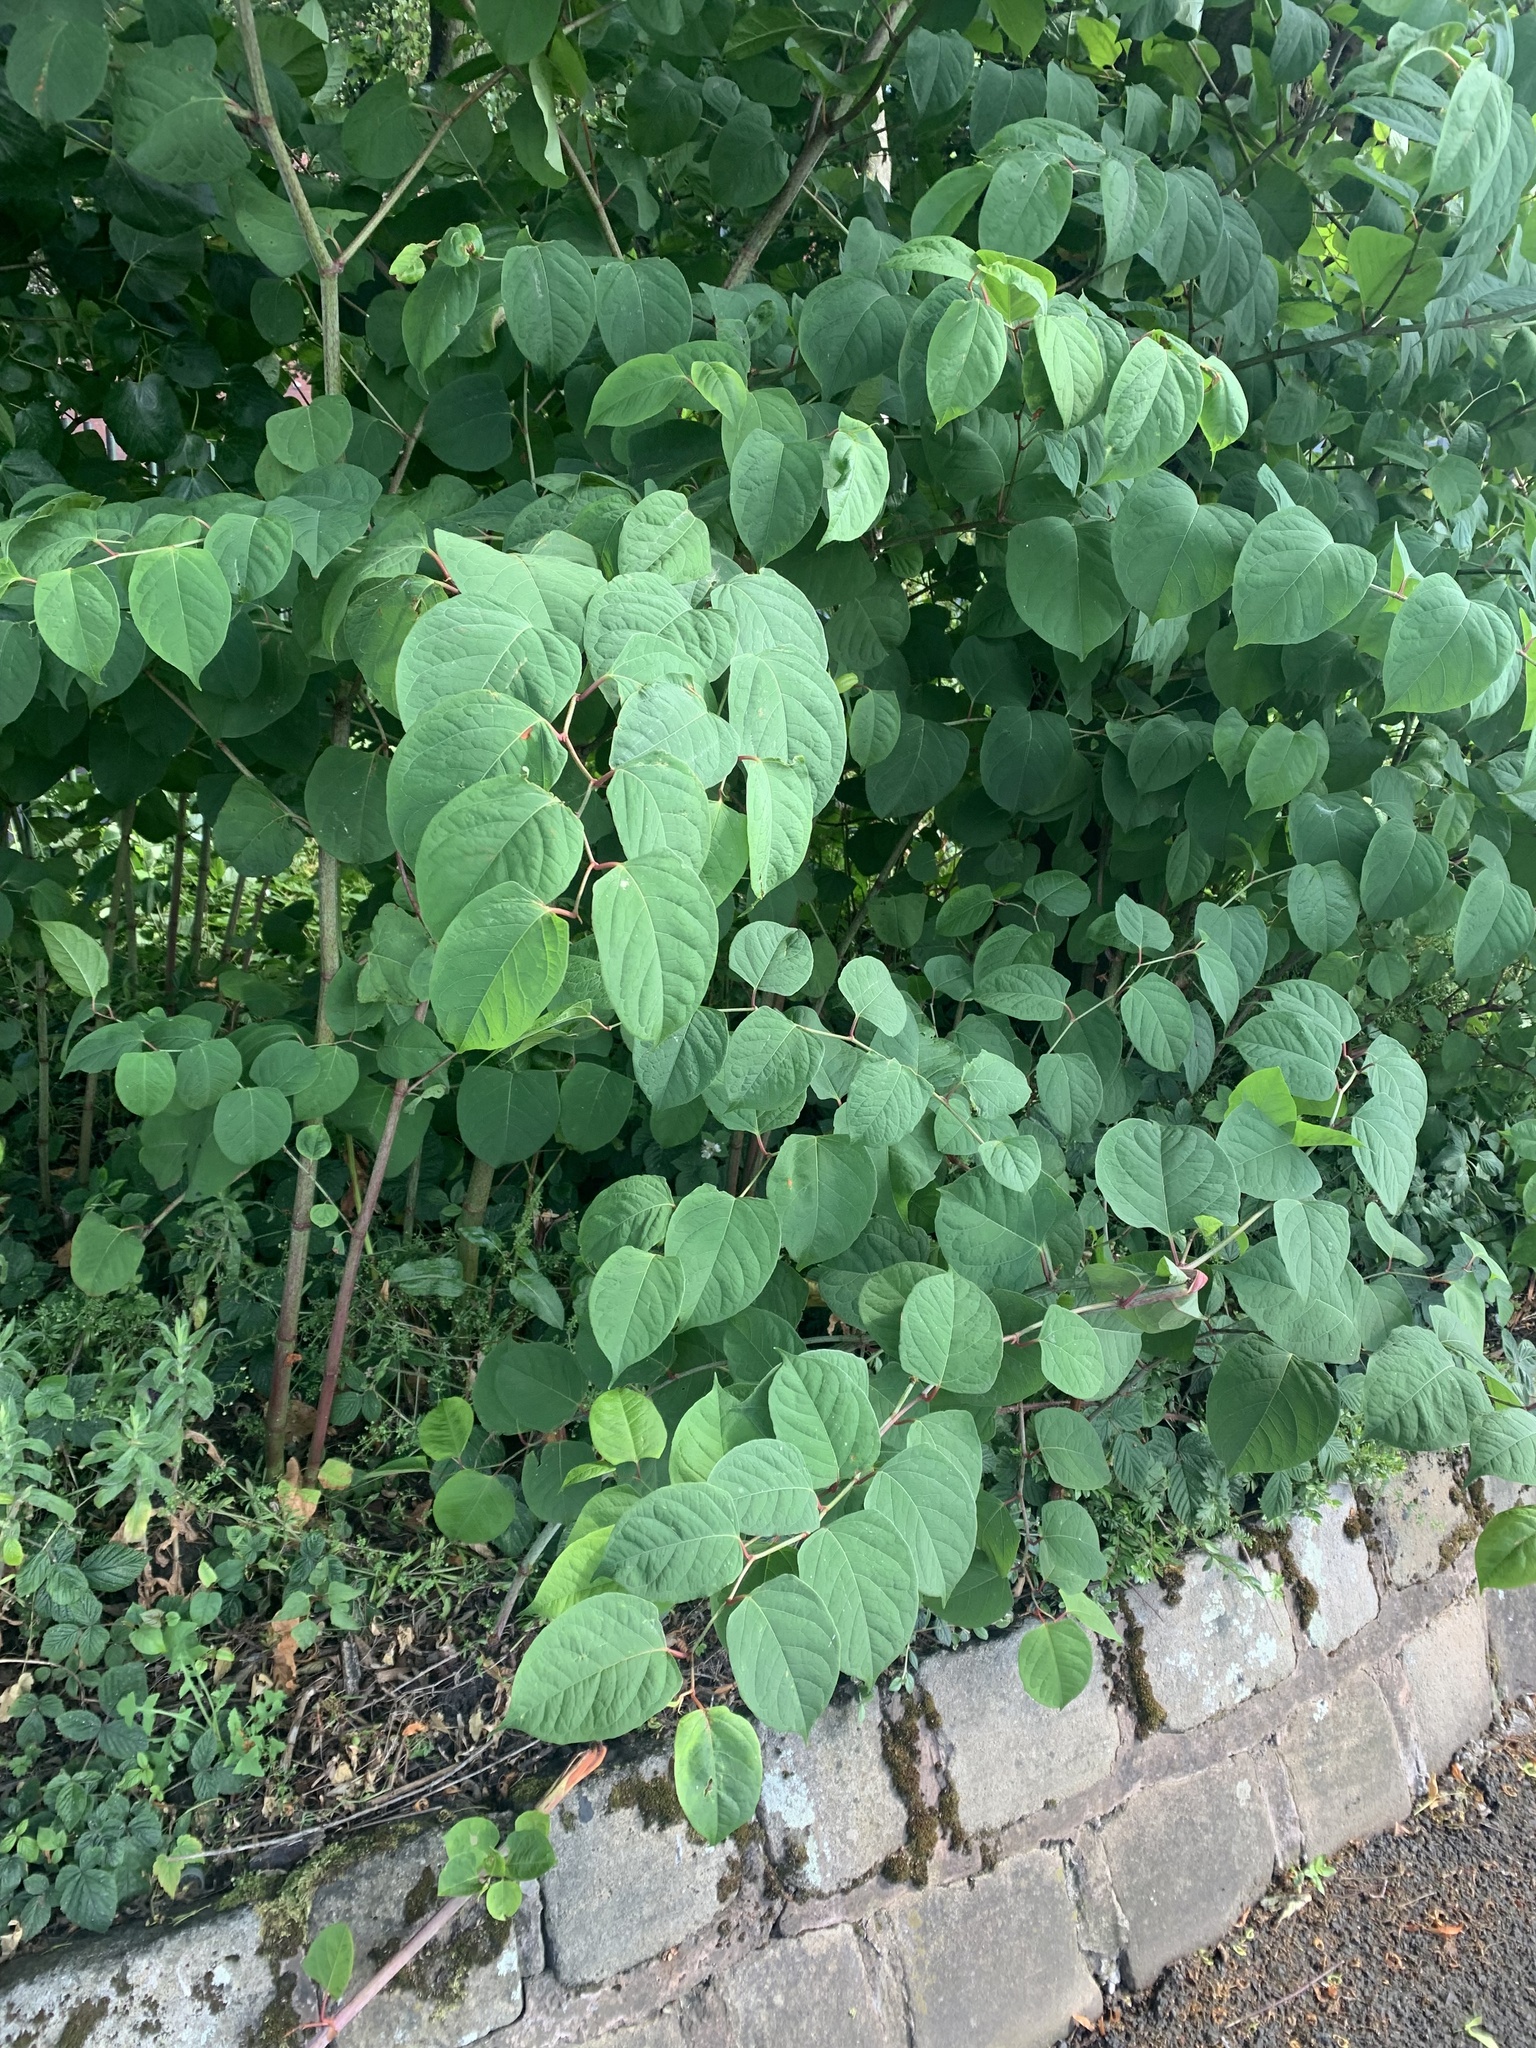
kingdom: Plantae
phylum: Tracheophyta
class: Magnoliopsida
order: Caryophyllales
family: Polygonaceae
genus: Reynoutria
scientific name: Reynoutria japonica
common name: Japanese knotweed
